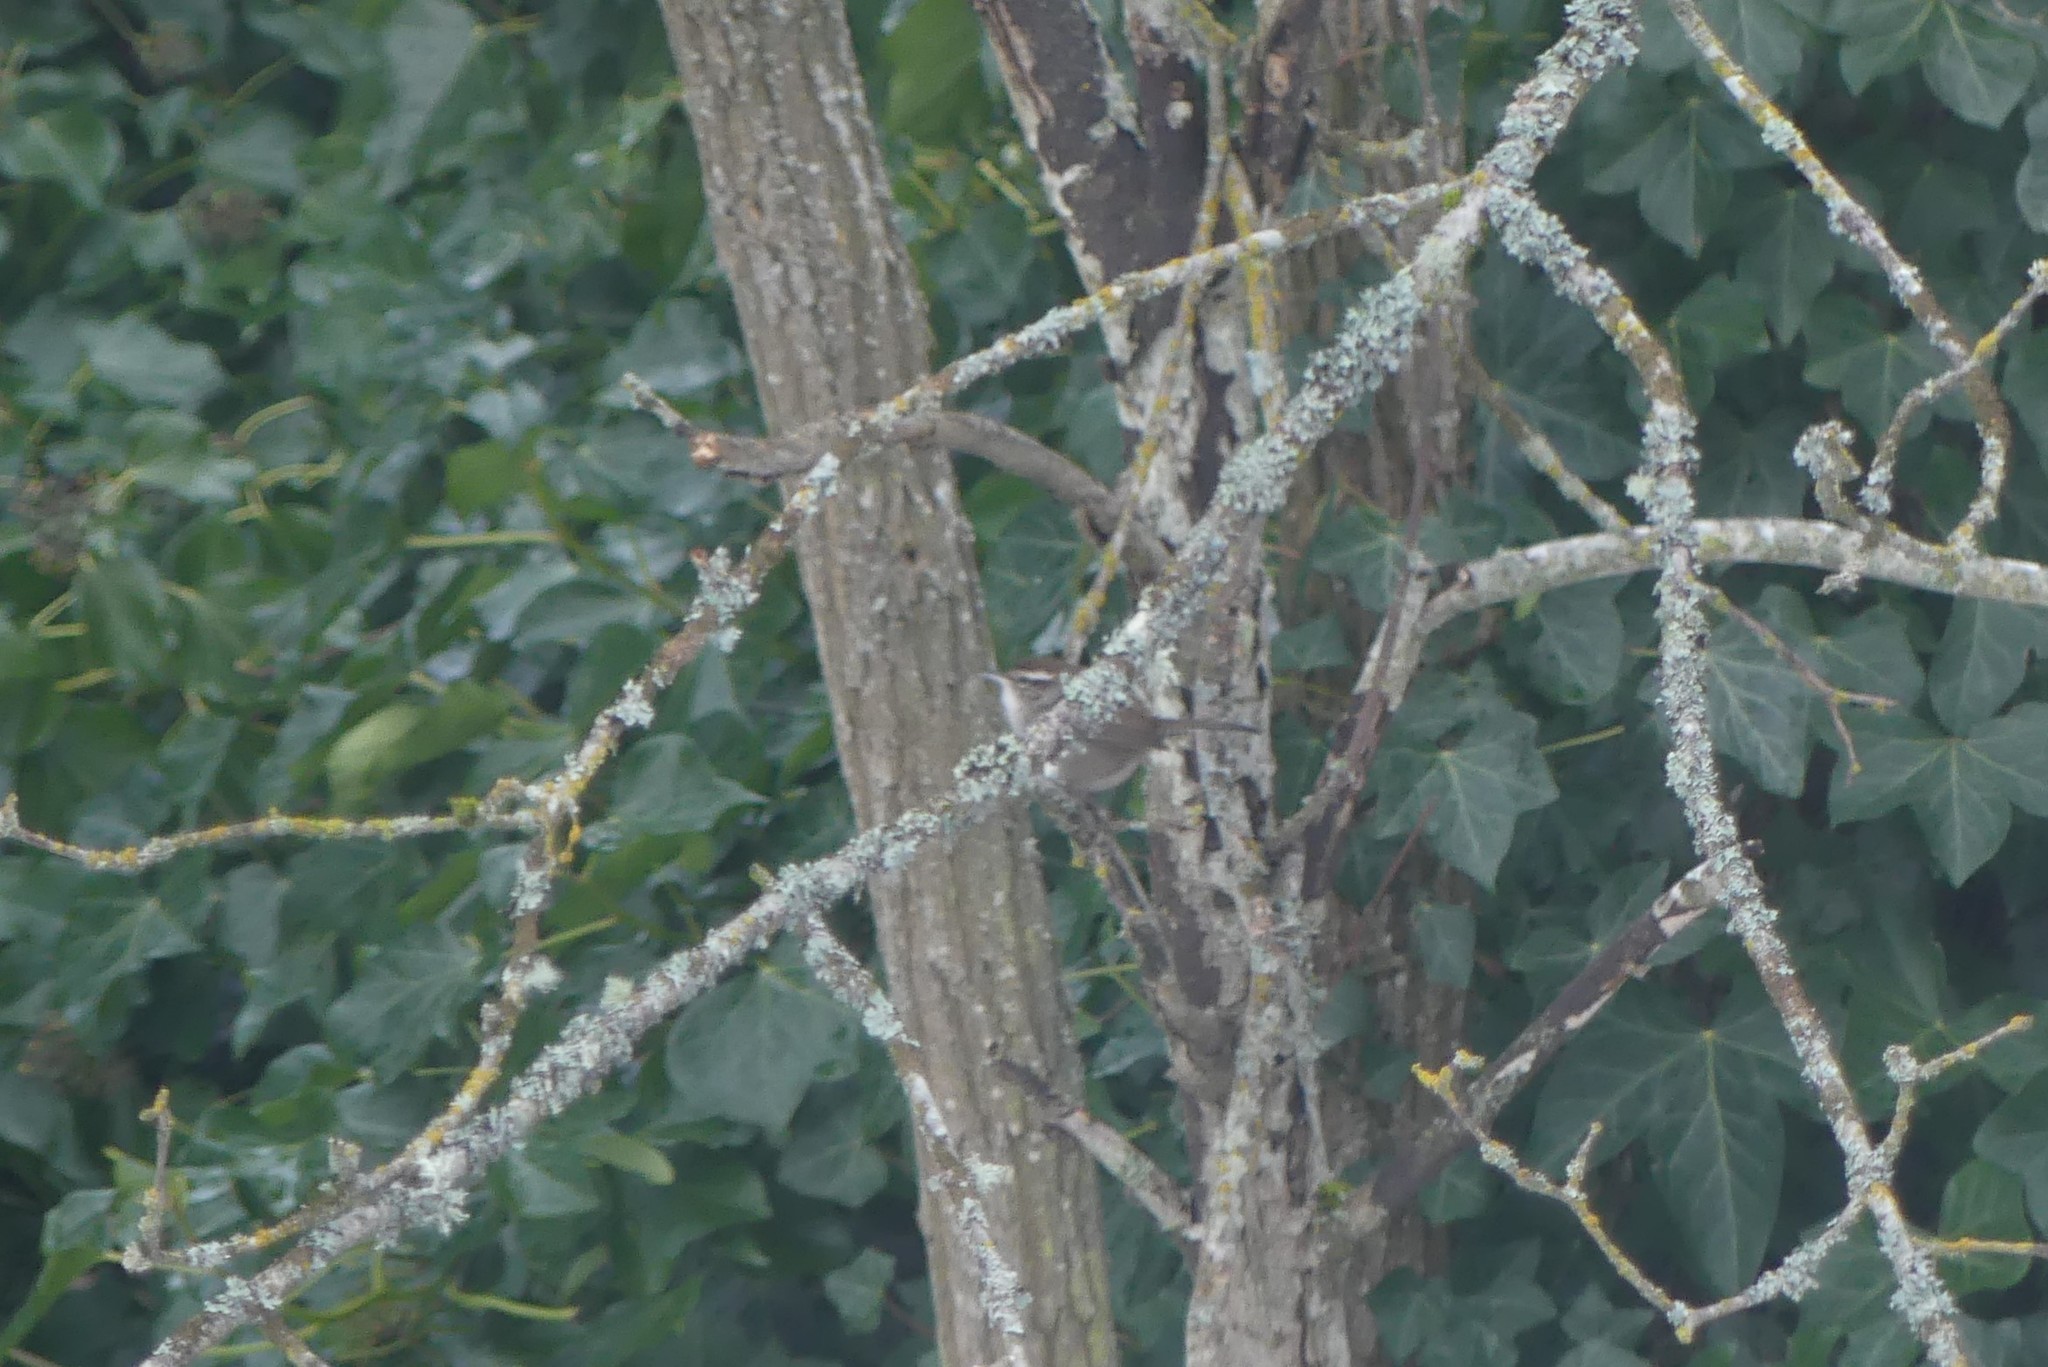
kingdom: Animalia
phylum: Chordata
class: Aves
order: Passeriformes
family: Troglodytidae
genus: Thryomanes
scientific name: Thryomanes bewickii
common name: Bewick's wren
